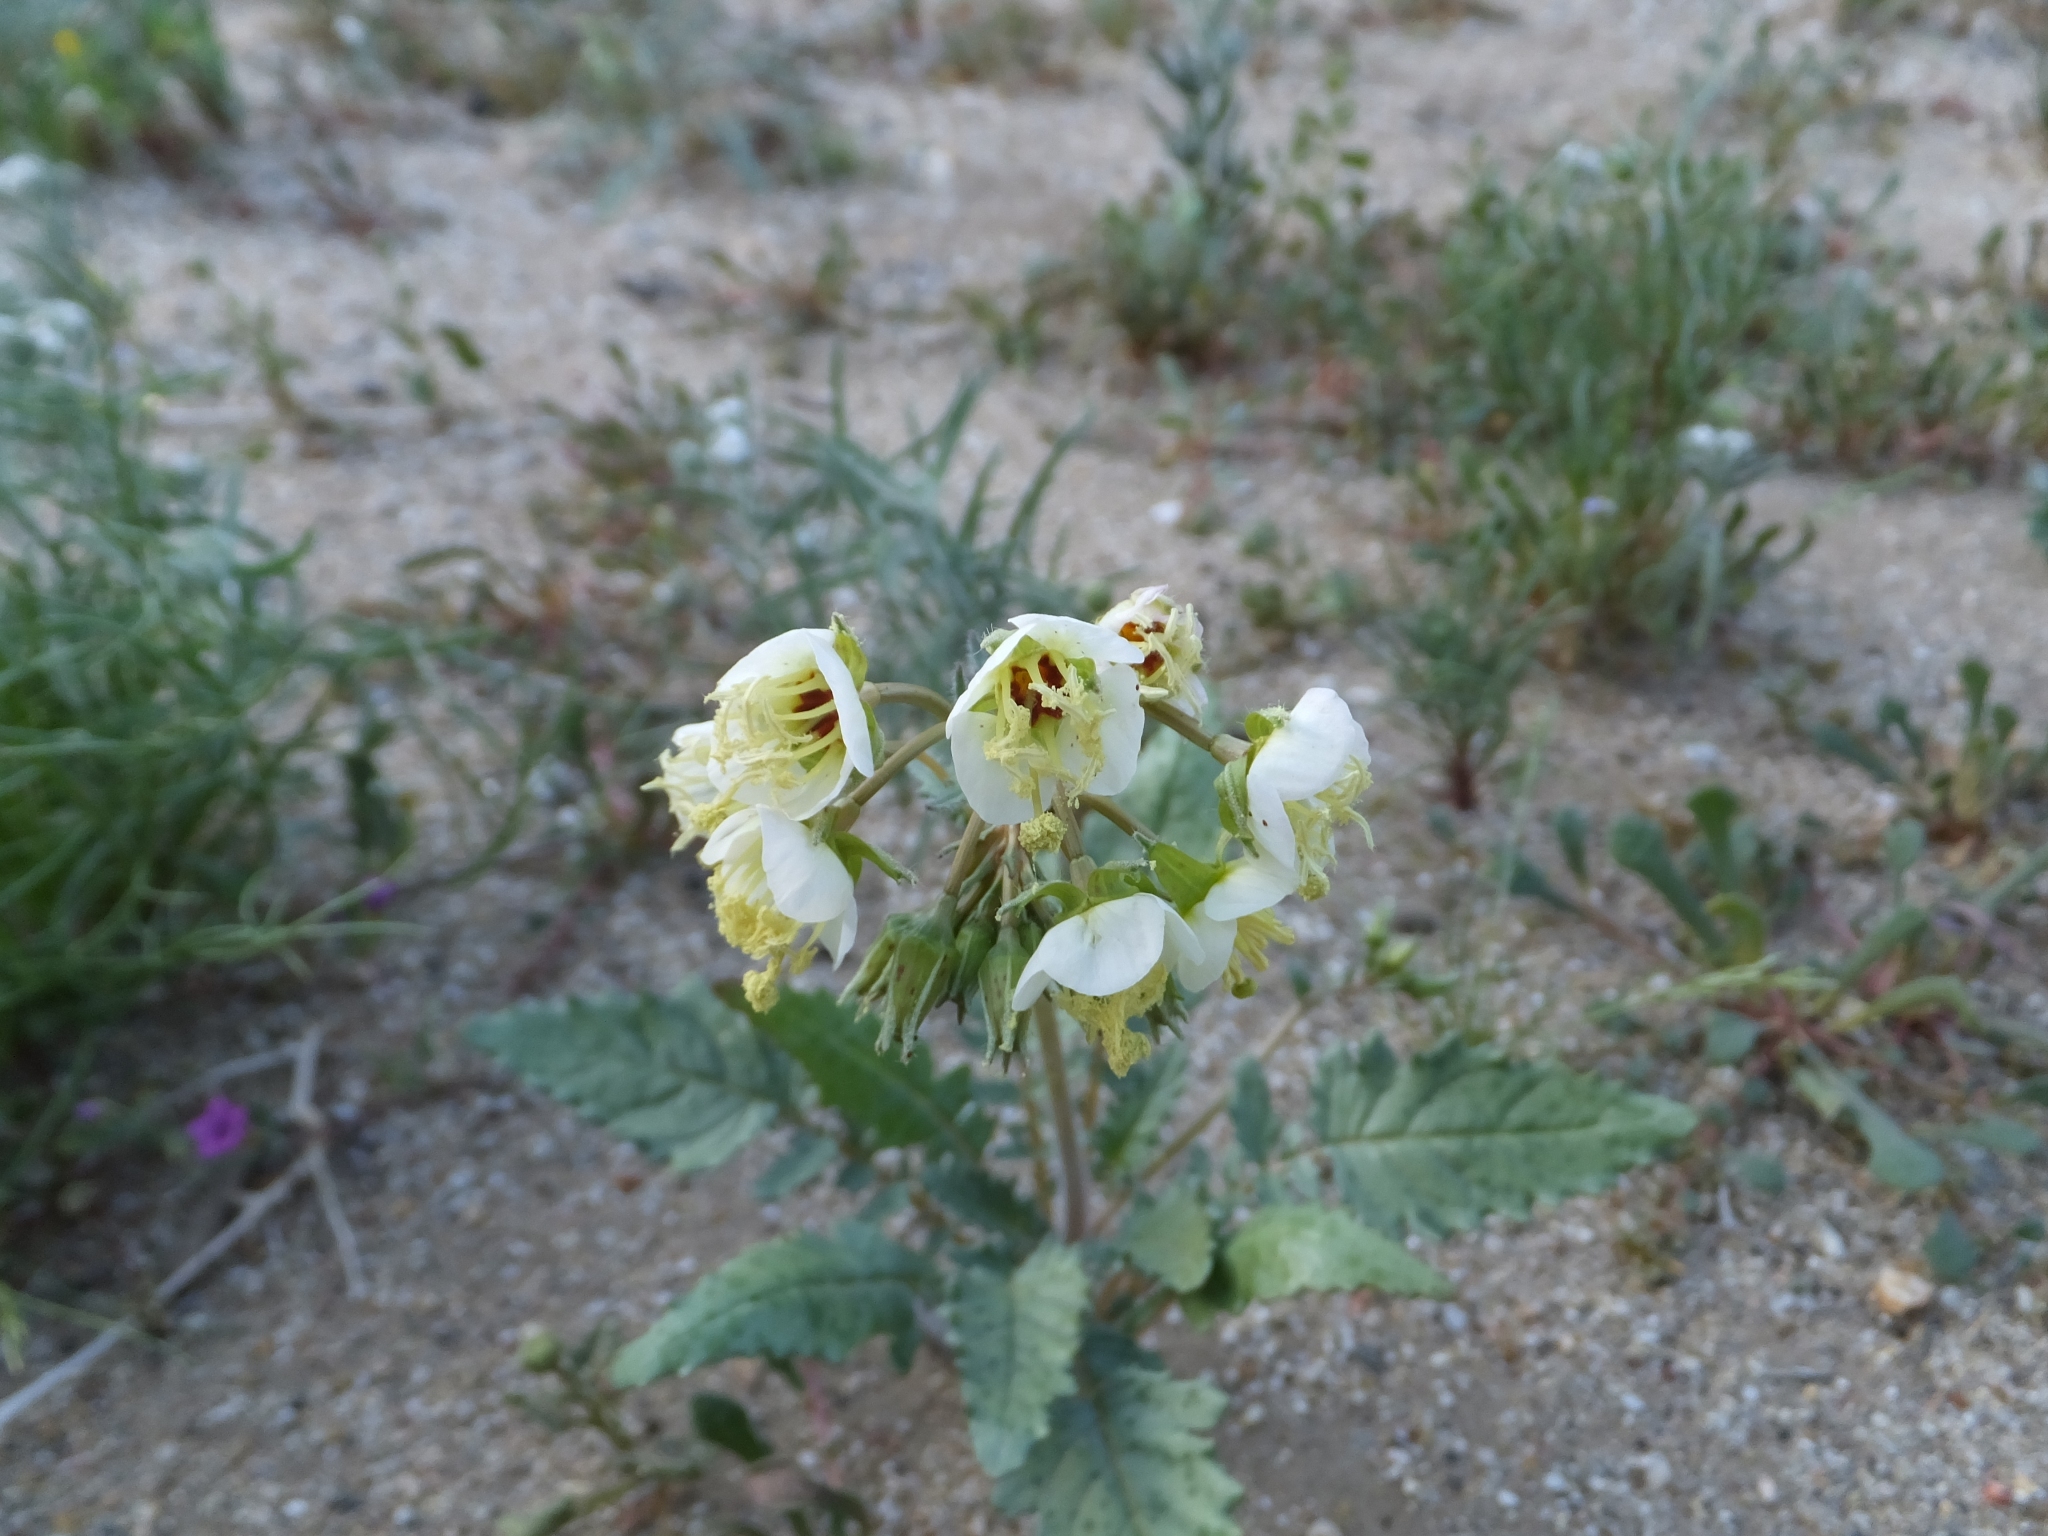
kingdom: Plantae
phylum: Tracheophyta
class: Magnoliopsida
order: Myrtales
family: Onagraceae
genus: Chylismia
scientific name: Chylismia claviformis
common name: Browneyes
